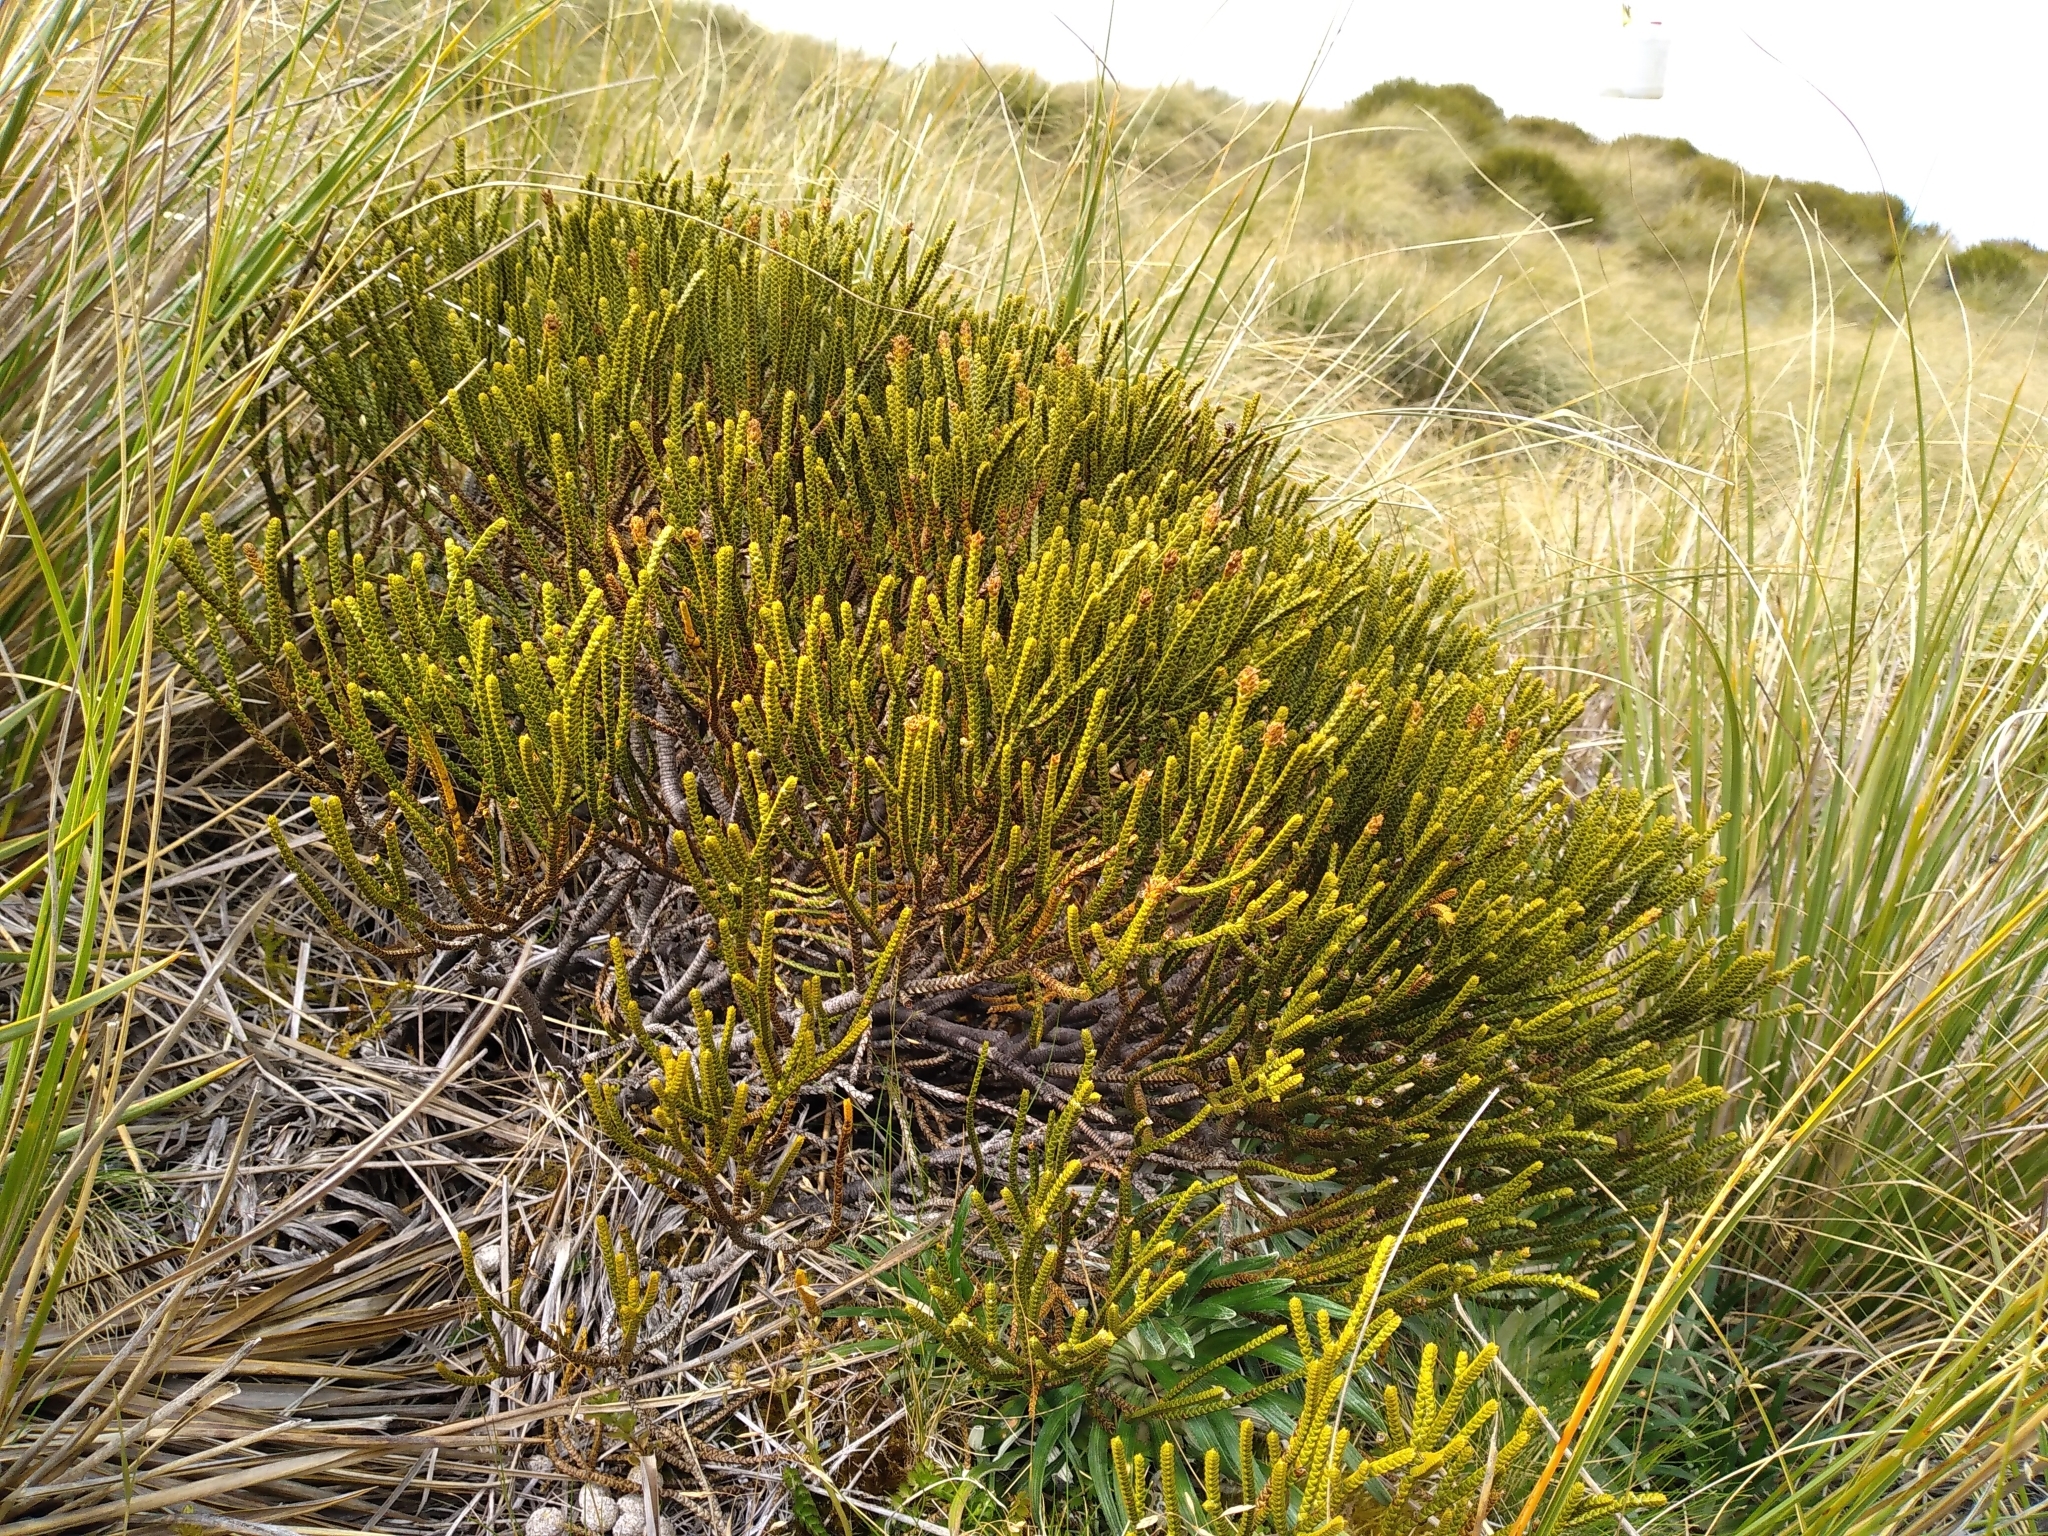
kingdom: Plantae
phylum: Tracheophyta
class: Magnoliopsida
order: Lamiales
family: Plantaginaceae
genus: Veronica
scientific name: Veronica lycopodioides
